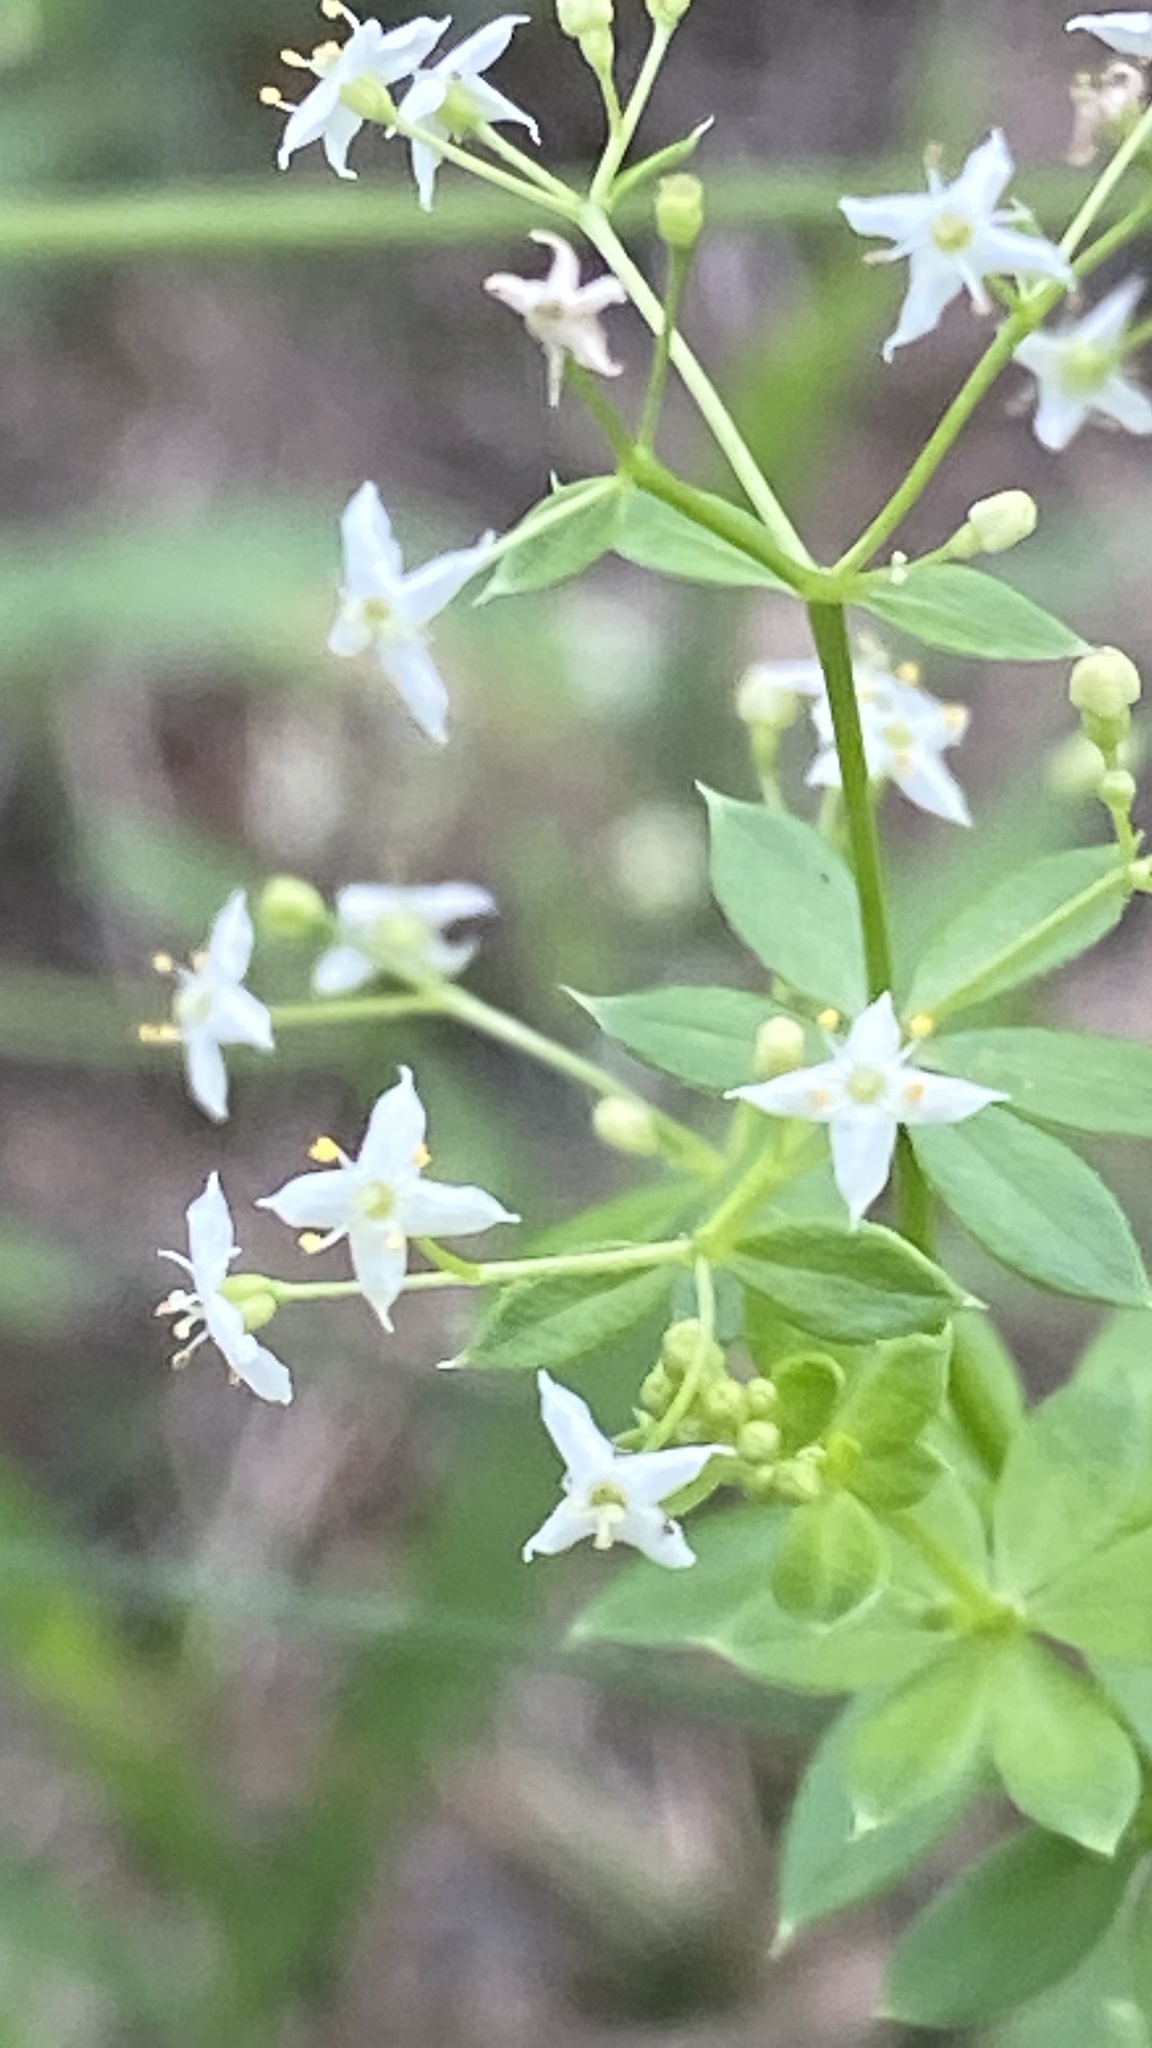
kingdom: Plantae
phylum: Tracheophyta
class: Magnoliopsida
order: Gentianales
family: Rubiaceae
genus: Galium
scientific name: Galium mollugo
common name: Hedge bedstraw
